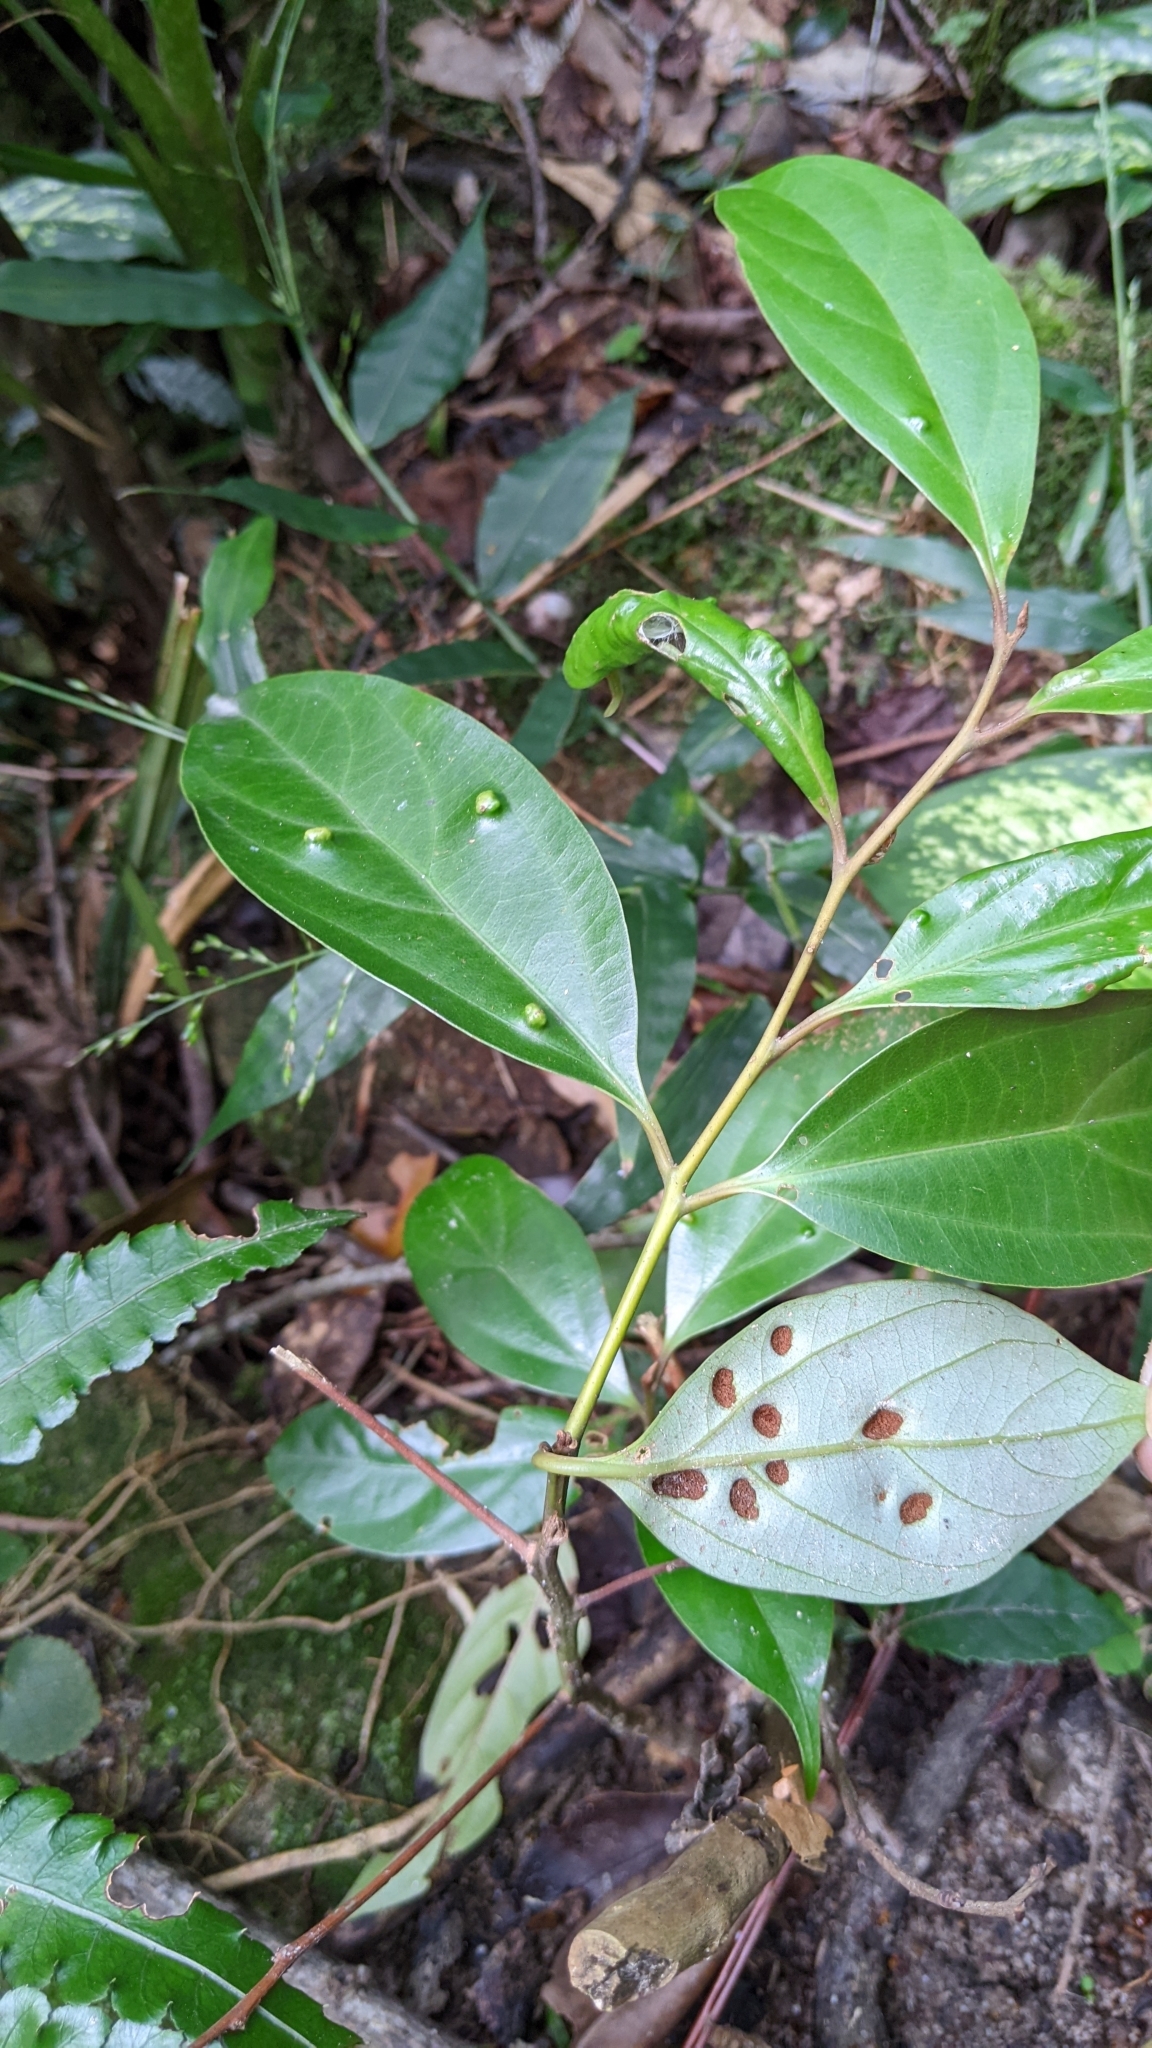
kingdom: Plantae
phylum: Tracheophyta
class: Magnoliopsida
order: Laurales
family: Lauraceae
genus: Cryptocarya
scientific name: Cryptocarya chinensis
